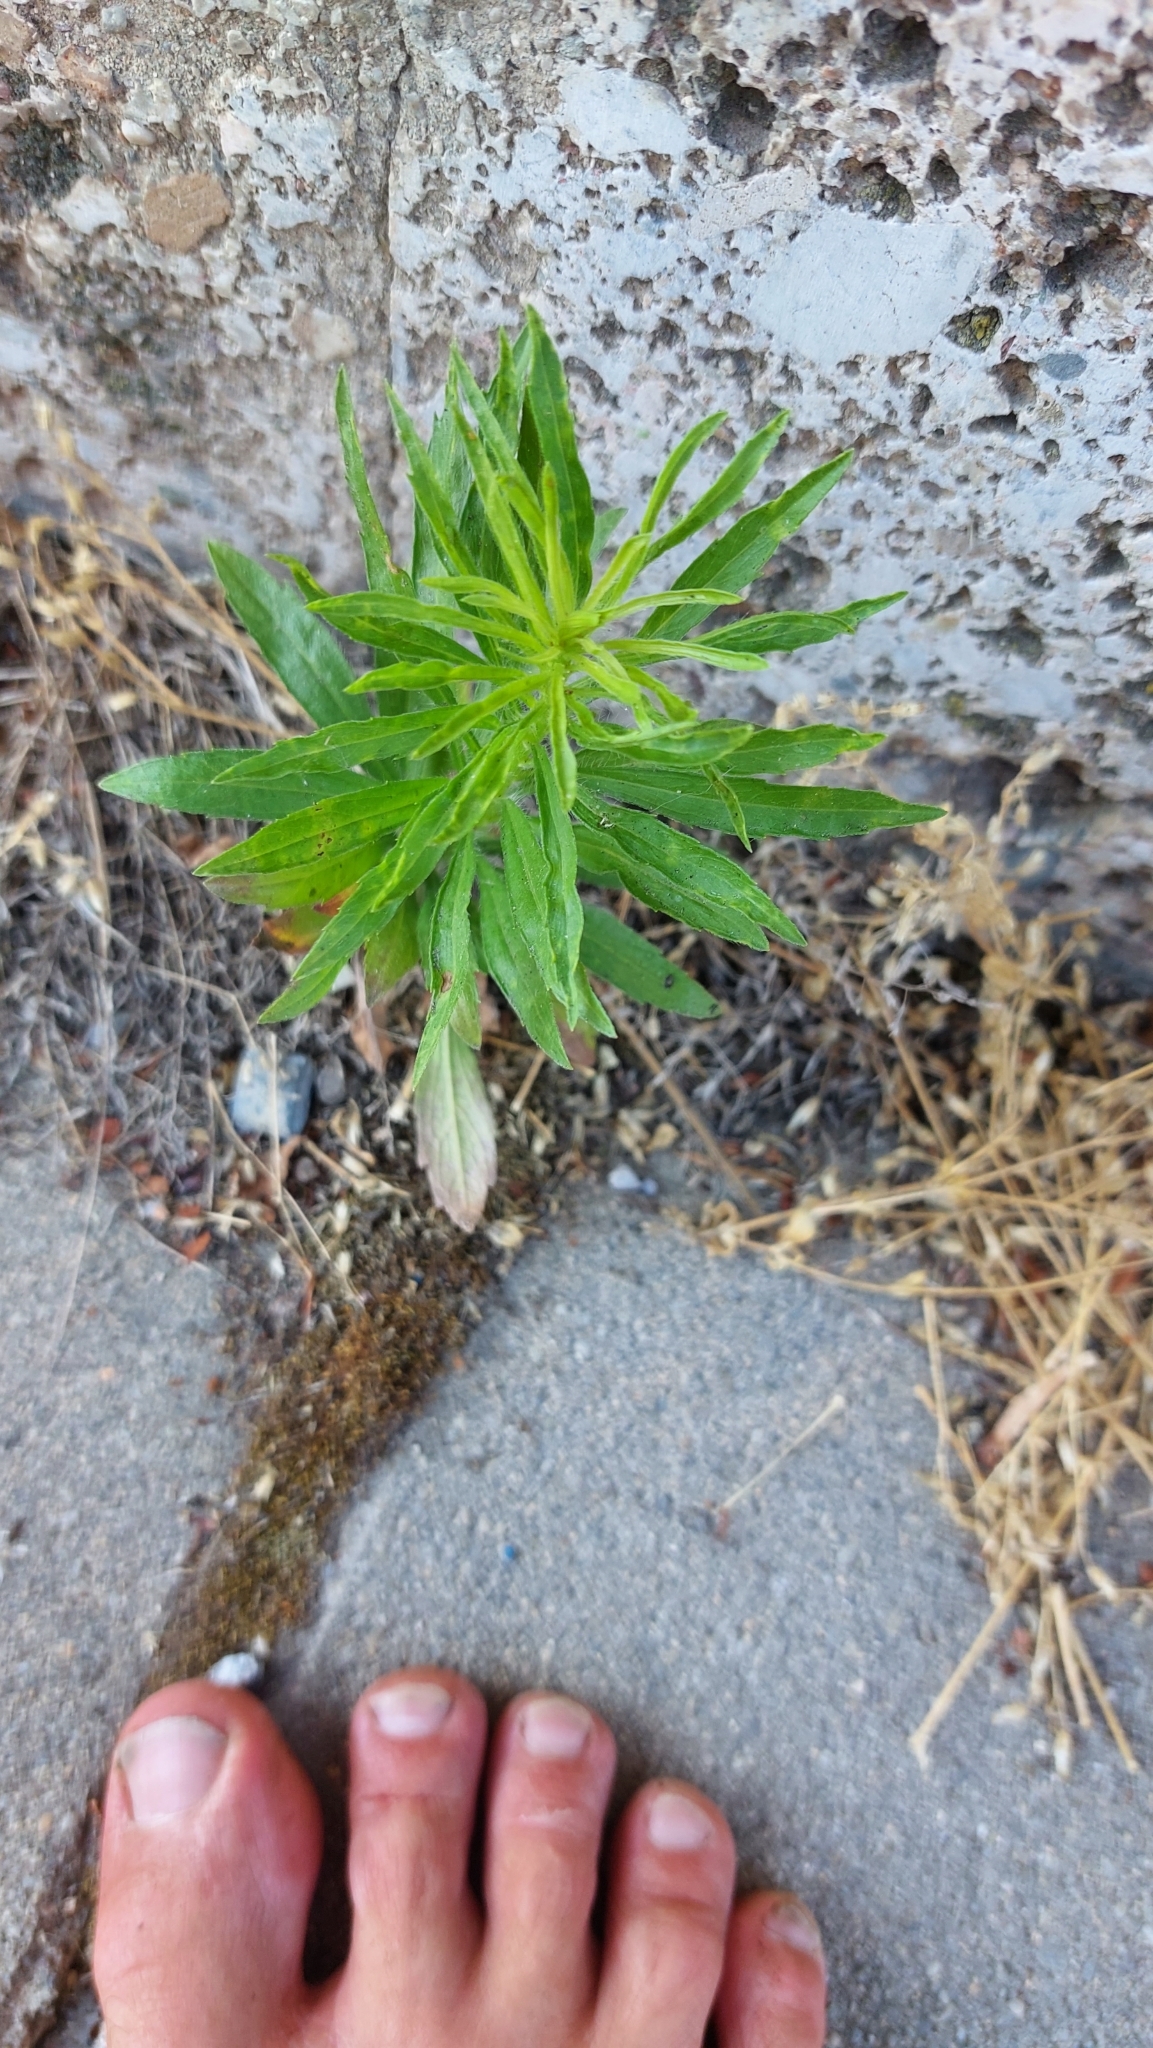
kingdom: Plantae
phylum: Tracheophyta
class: Magnoliopsida
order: Asterales
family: Asteraceae
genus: Erigeron
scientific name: Erigeron canadensis
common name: Canadian fleabane
